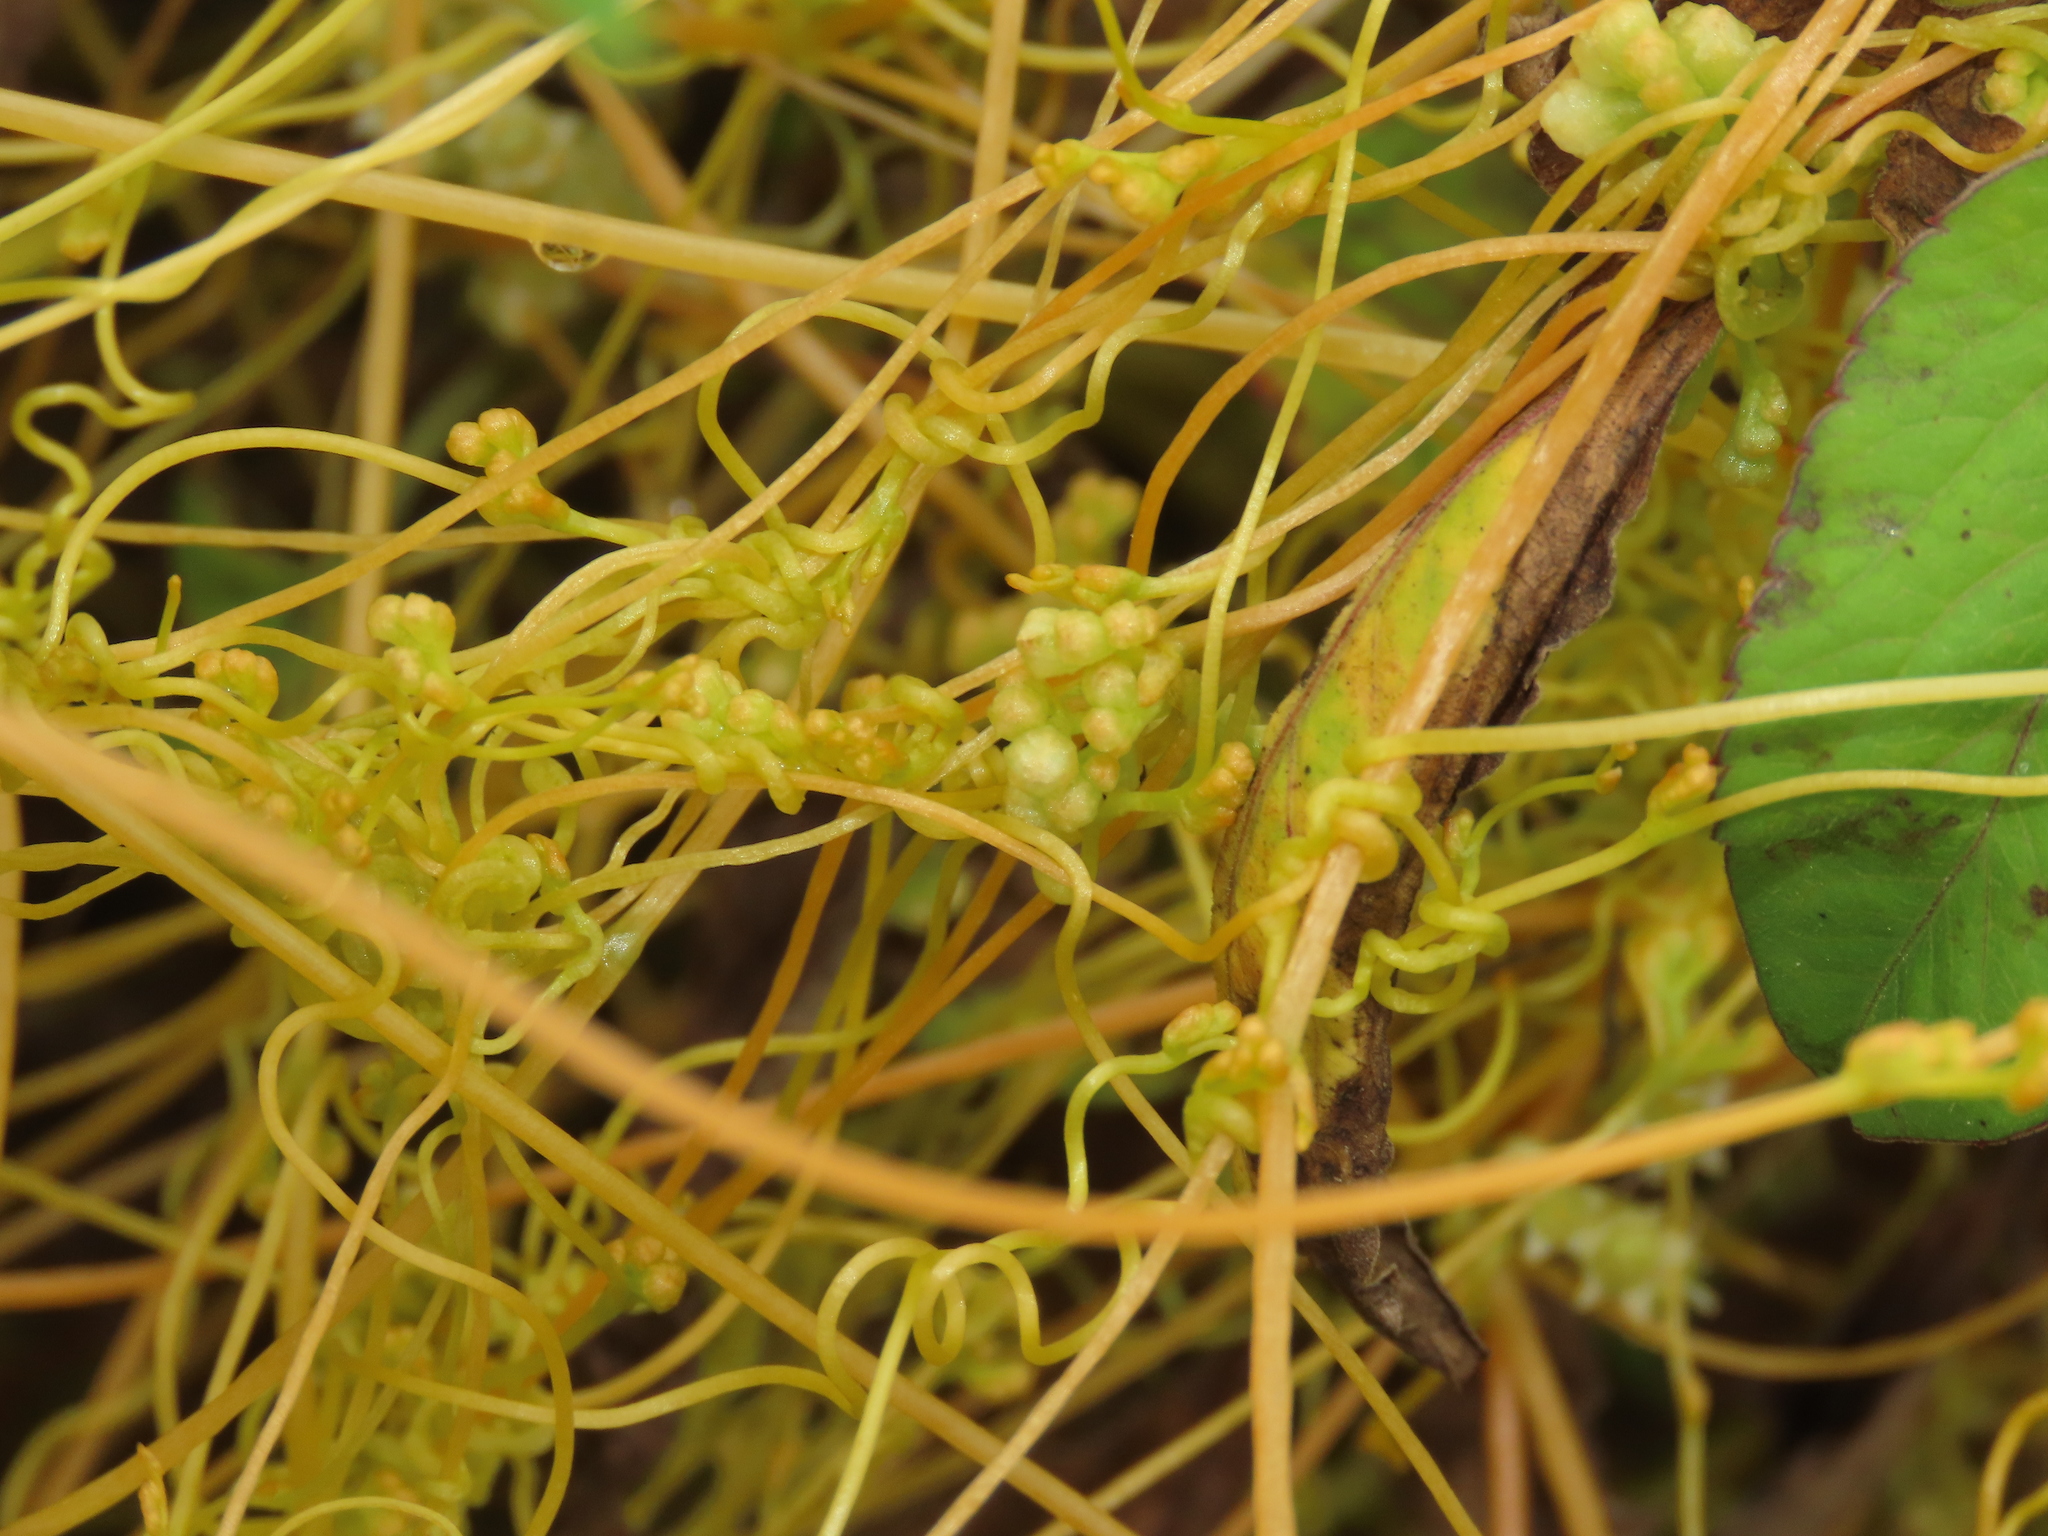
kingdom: Plantae
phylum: Tracheophyta
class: Magnoliopsida
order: Solanales
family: Convolvulaceae
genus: Cuscuta
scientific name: Cuscuta campestris
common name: Yellow dodder
